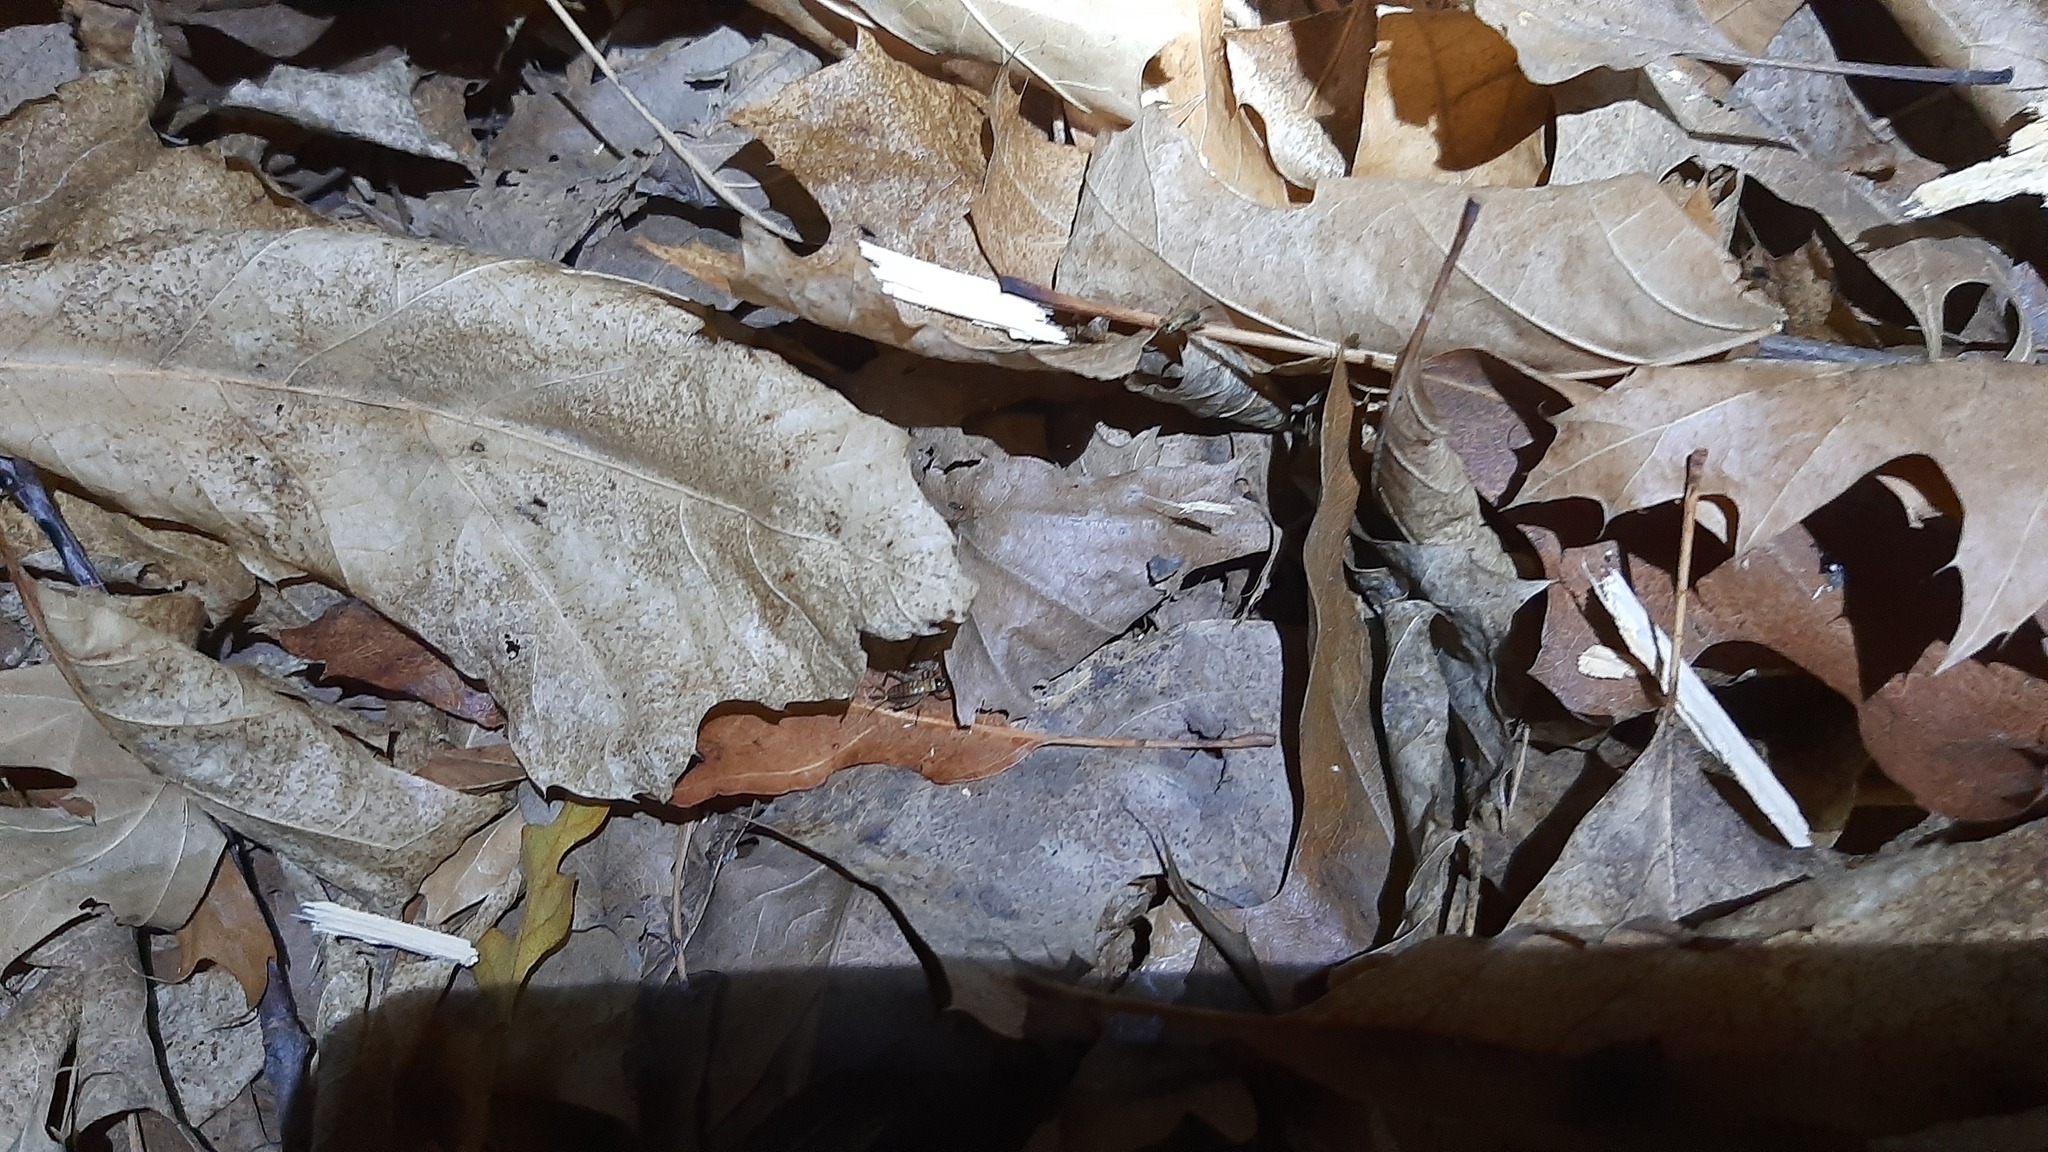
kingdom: Animalia
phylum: Arthropoda
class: Insecta
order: Orthoptera
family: Trigonidiidae
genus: Nemobius
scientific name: Nemobius sylvestris
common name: Wood-cricket
